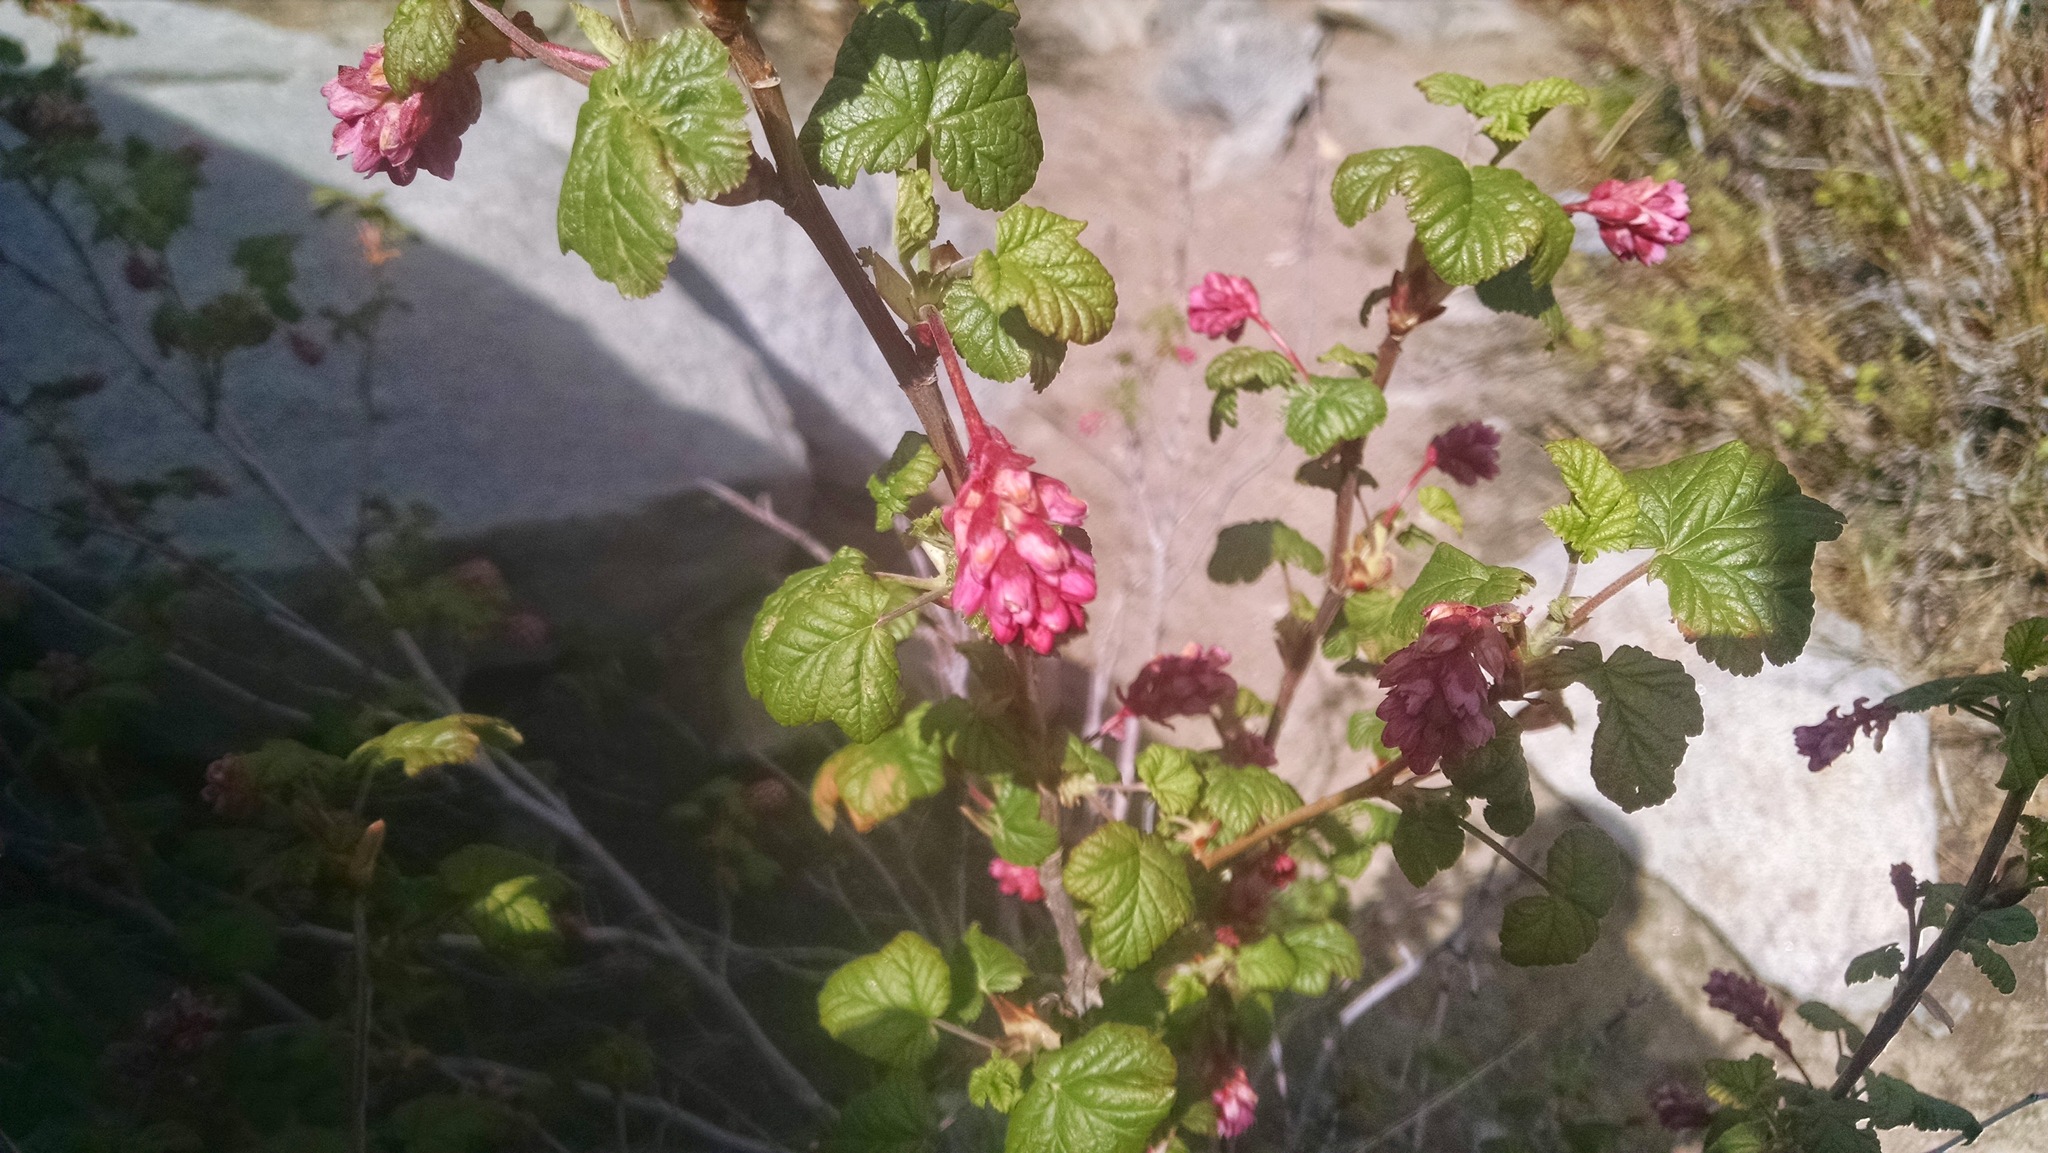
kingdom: Plantae
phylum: Tracheophyta
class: Magnoliopsida
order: Saxifragales
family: Grossulariaceae
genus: Ribes
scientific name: Ribes nevadense
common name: Mountain pink currant
